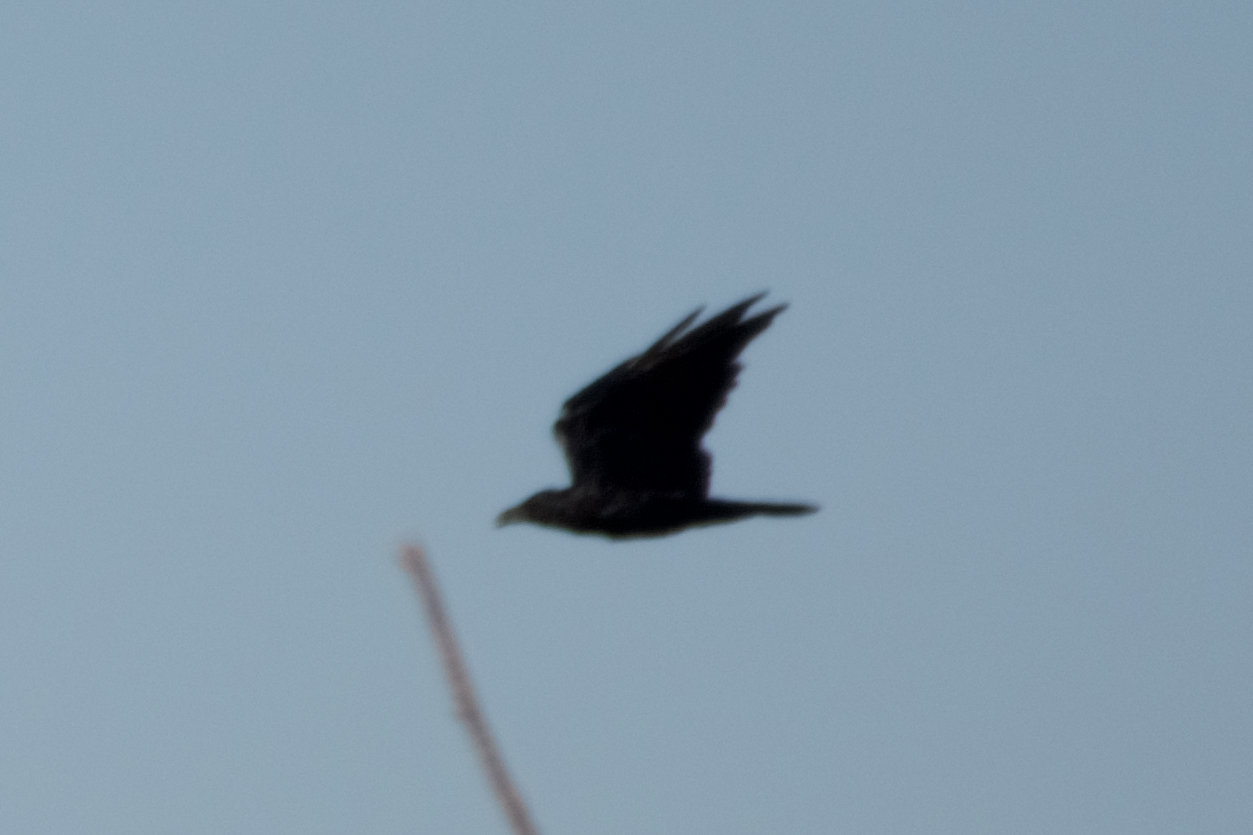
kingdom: Animalia
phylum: Chordata
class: Aves
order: Passeriformes
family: Corvidae
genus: Corvus
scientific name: Corvus corax
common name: Common raven
